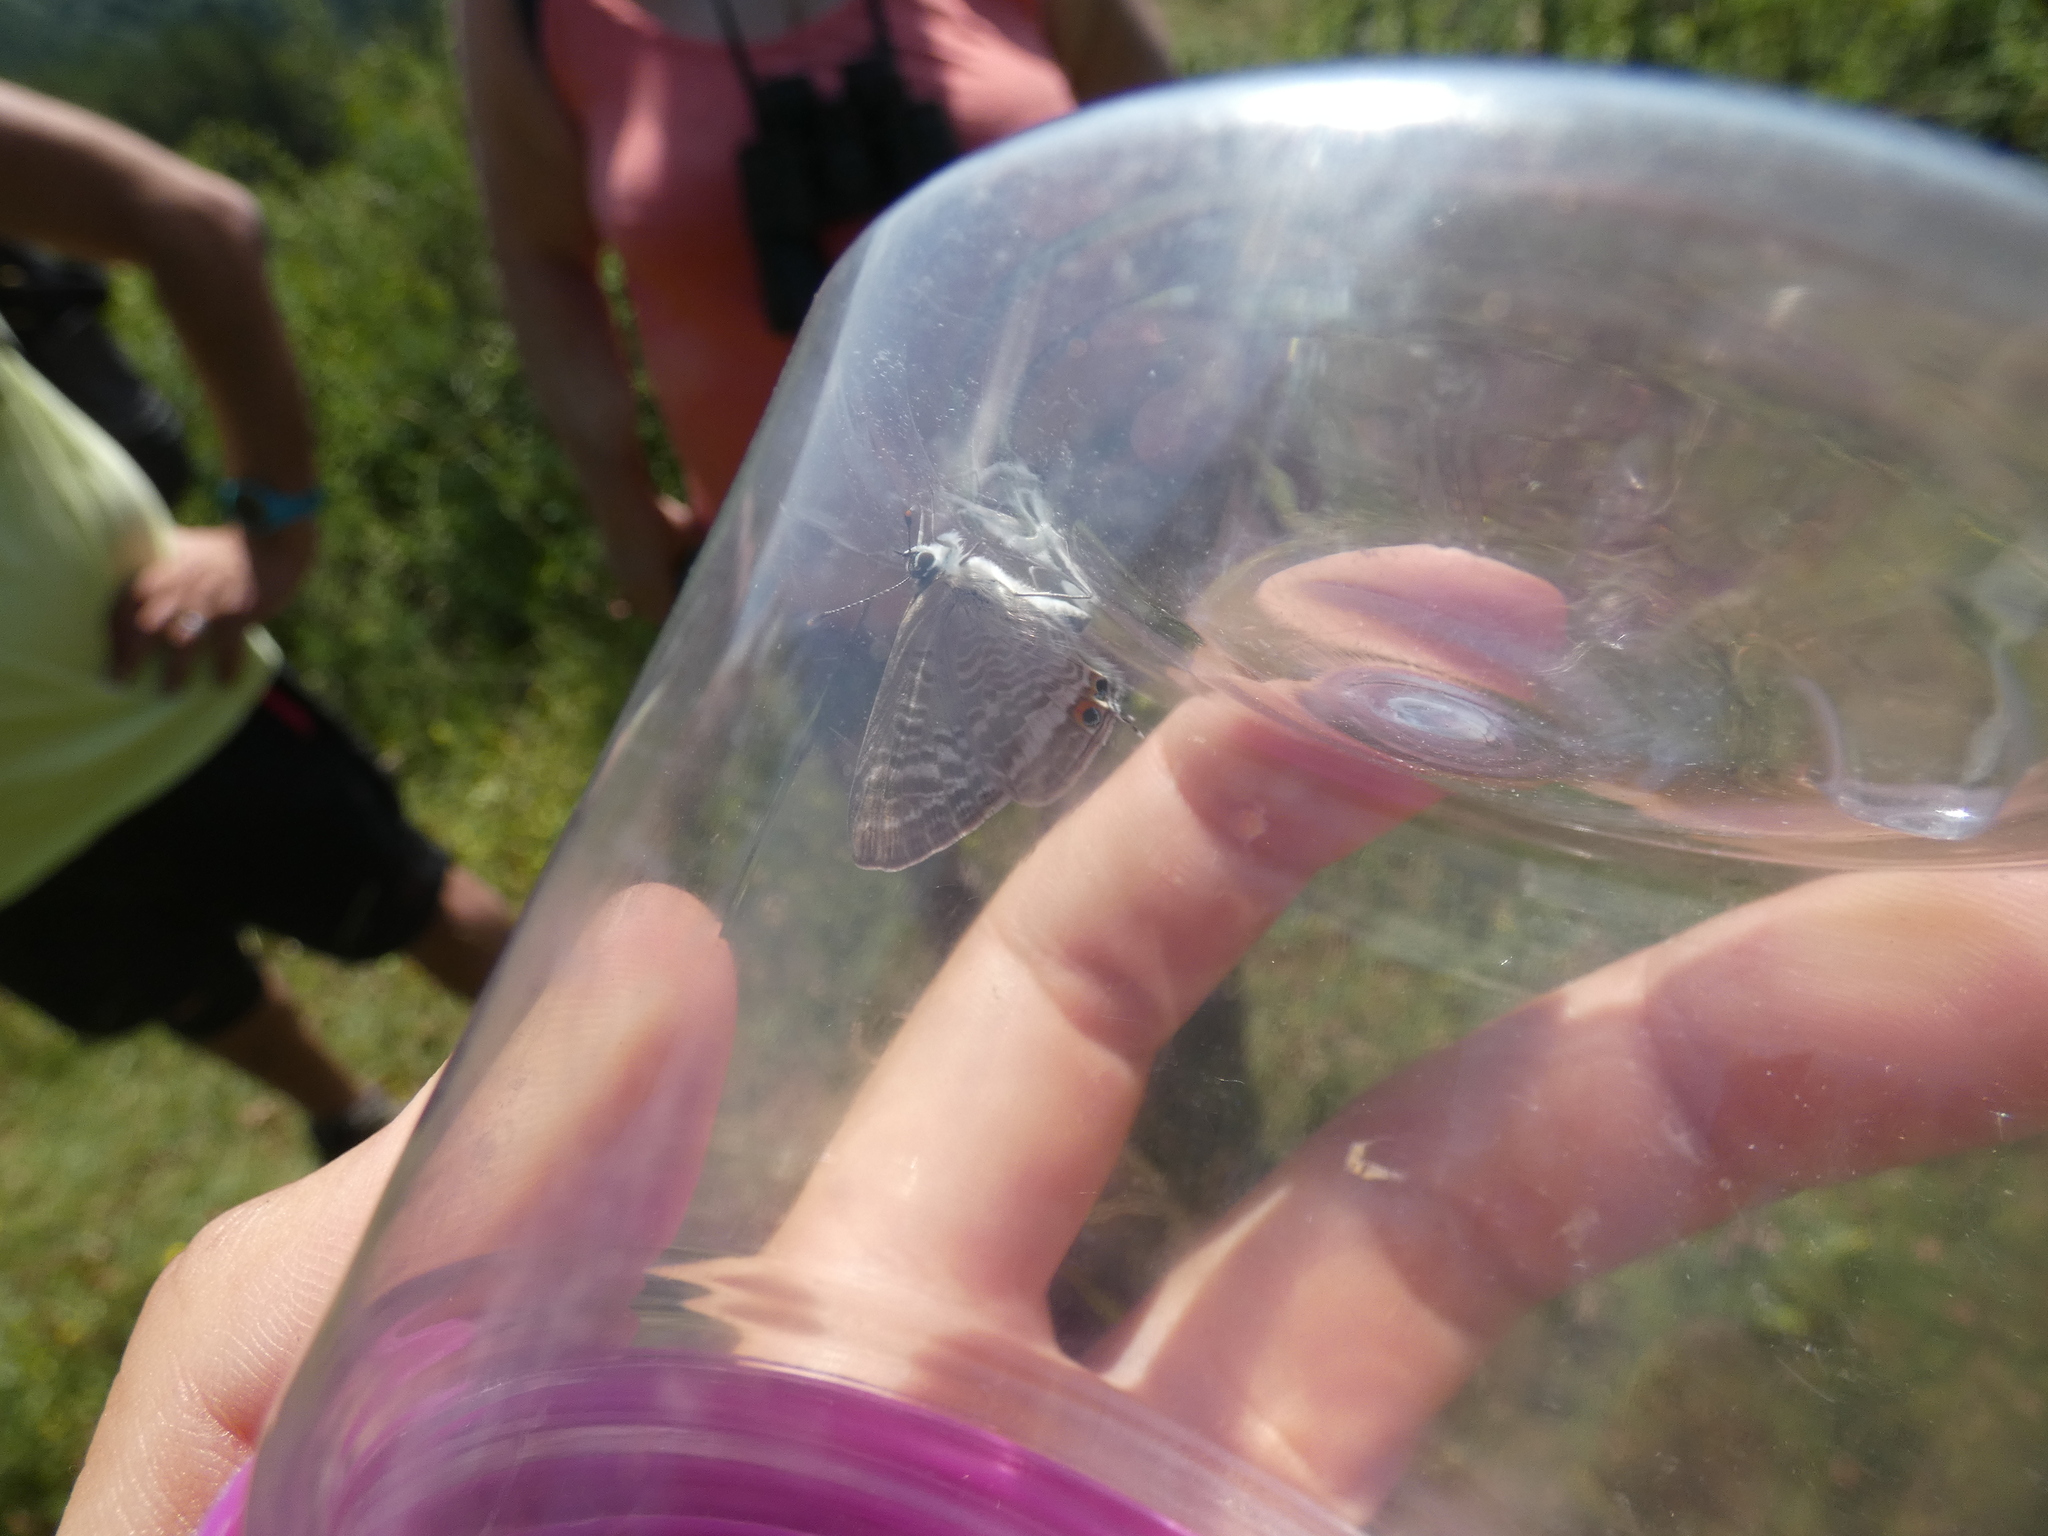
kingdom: Animalia
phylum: Arthropoda
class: Insecta
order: Lepidoptera
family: Lycaenidae
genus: Lampides
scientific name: Lampides boeticus
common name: Long-tailed blue
